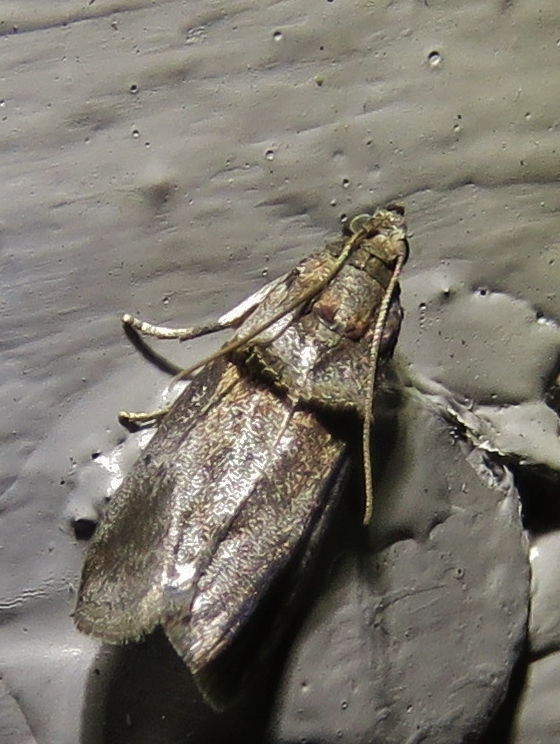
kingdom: Animalia
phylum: Arthropoda
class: Insecta
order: Lepidoptera
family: Pyralidae
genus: Acrobasis
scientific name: Acrobasis texana
